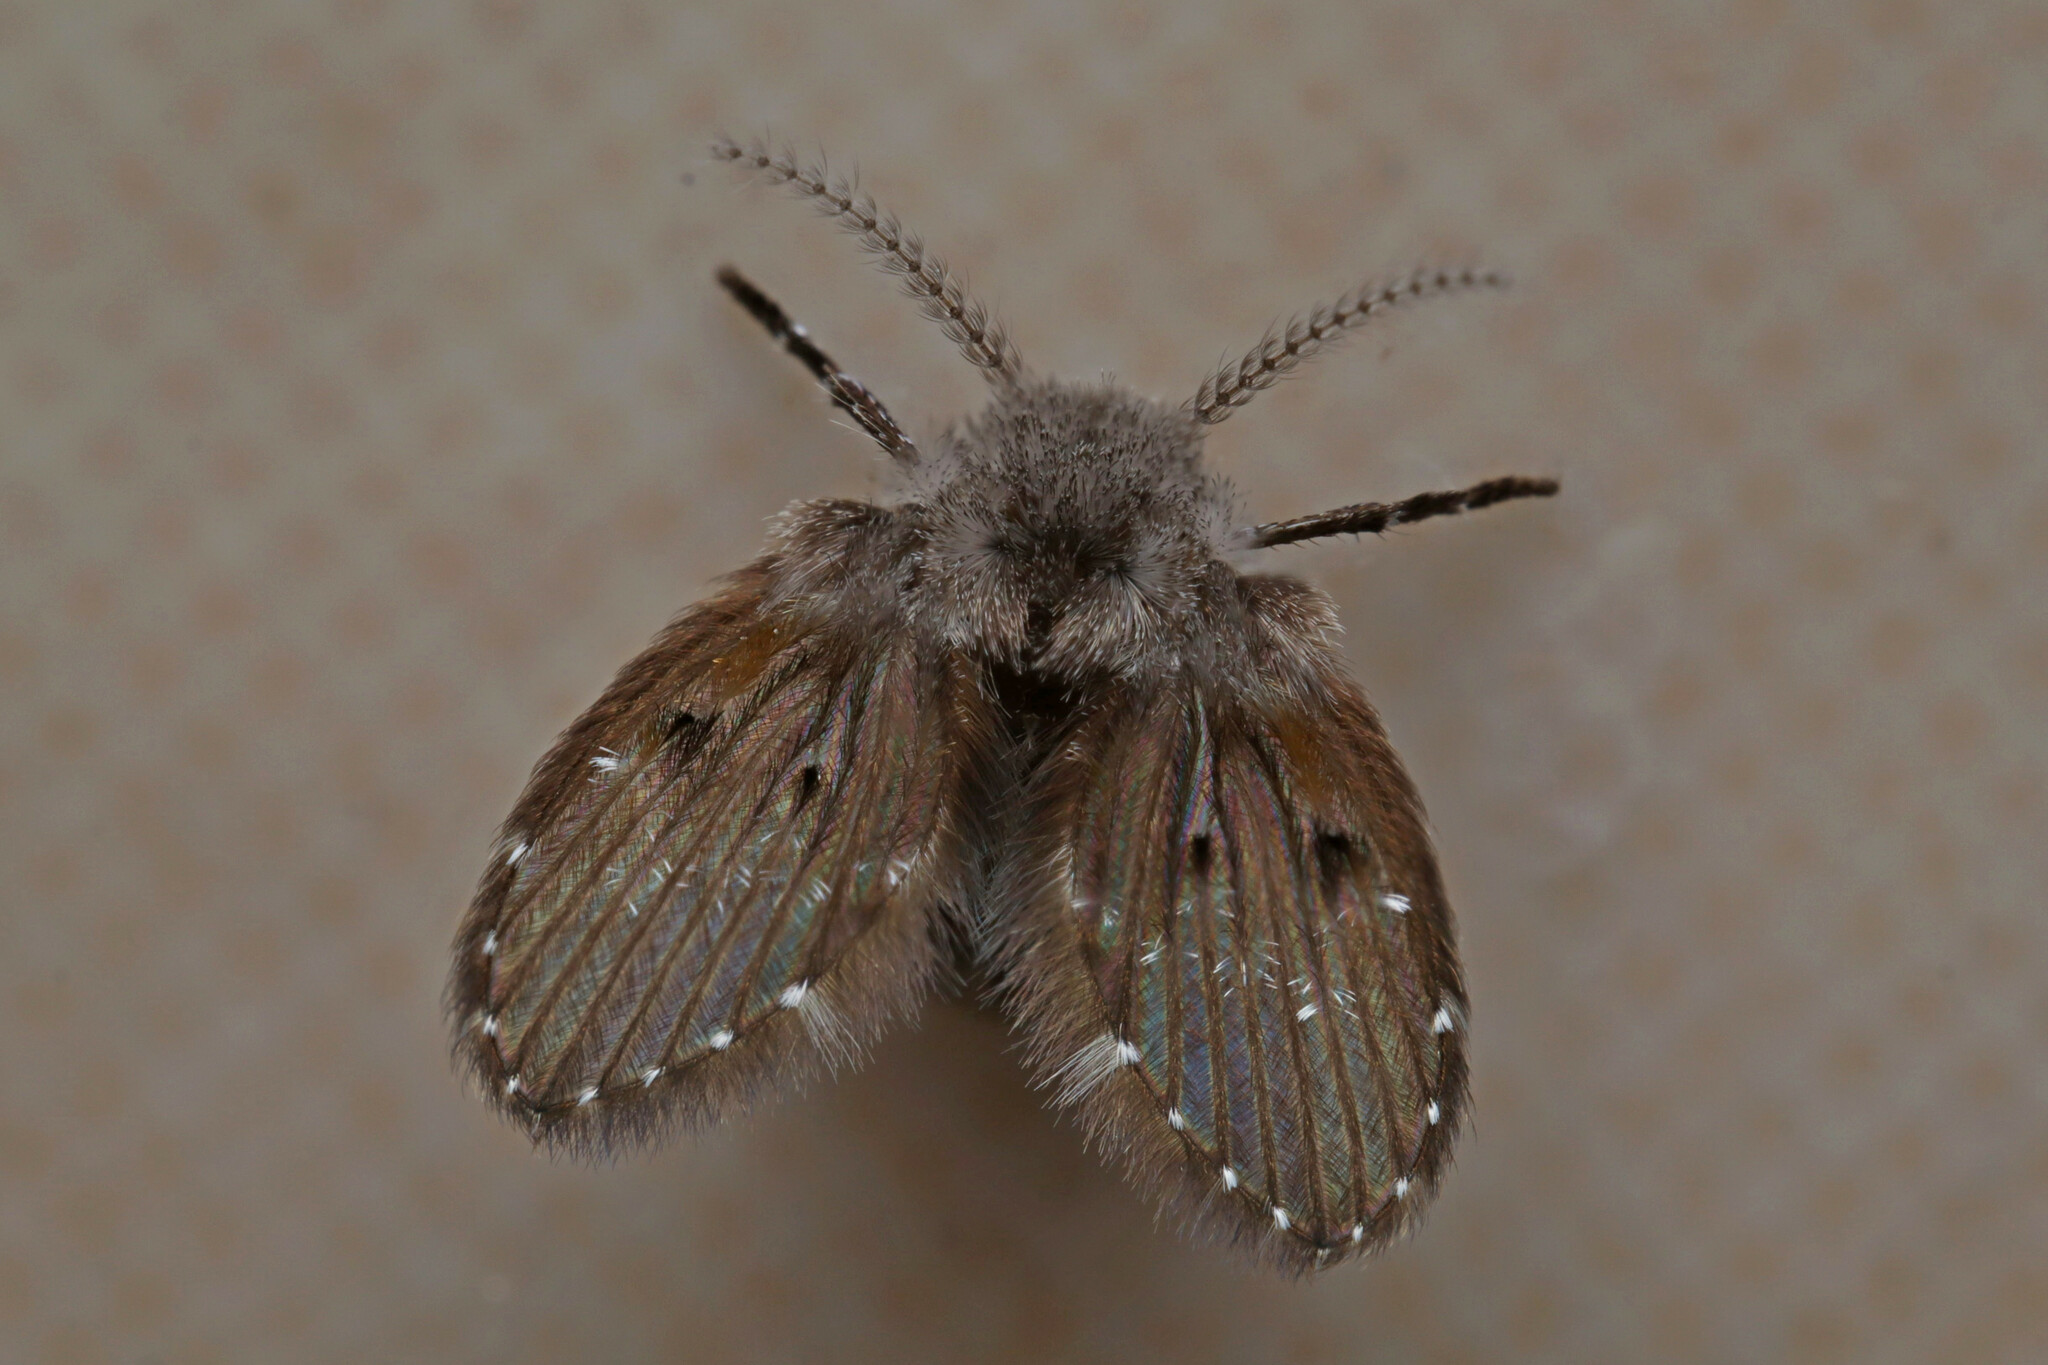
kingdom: Animalia
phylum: Arthropoda
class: Insecta
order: Diptera
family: Psychodidae
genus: Clogmia
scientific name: Clogmia albipunctatus
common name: White-spotted moth fly
